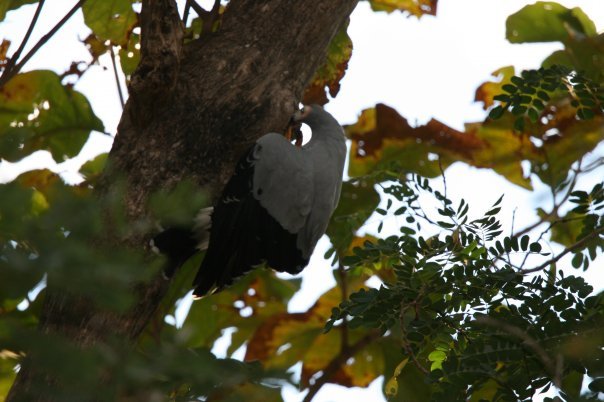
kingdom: Animalia
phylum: Chordata
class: Aves
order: Accipitriformes
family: Accipitridae
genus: Polyboroides
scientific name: Polyboroides radiatus
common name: Madagascar harrier-hawk
